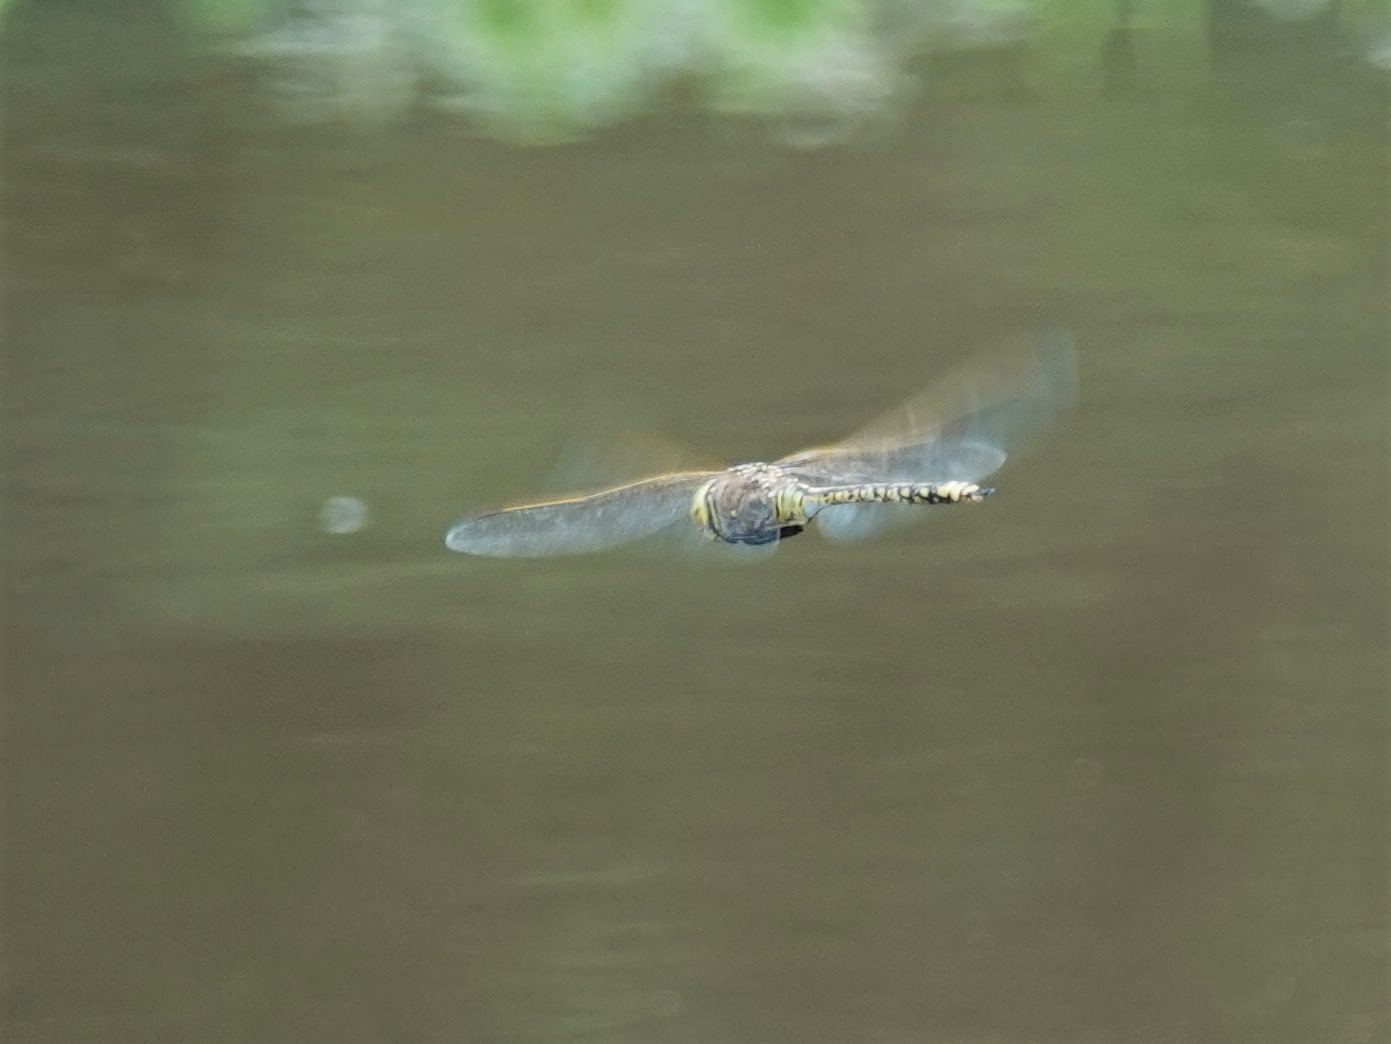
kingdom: Animalia
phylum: Arthropoda
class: Insecta
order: Odonata
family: Aeshnidae
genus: Anax
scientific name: Anax papuensis
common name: Australian emperor
